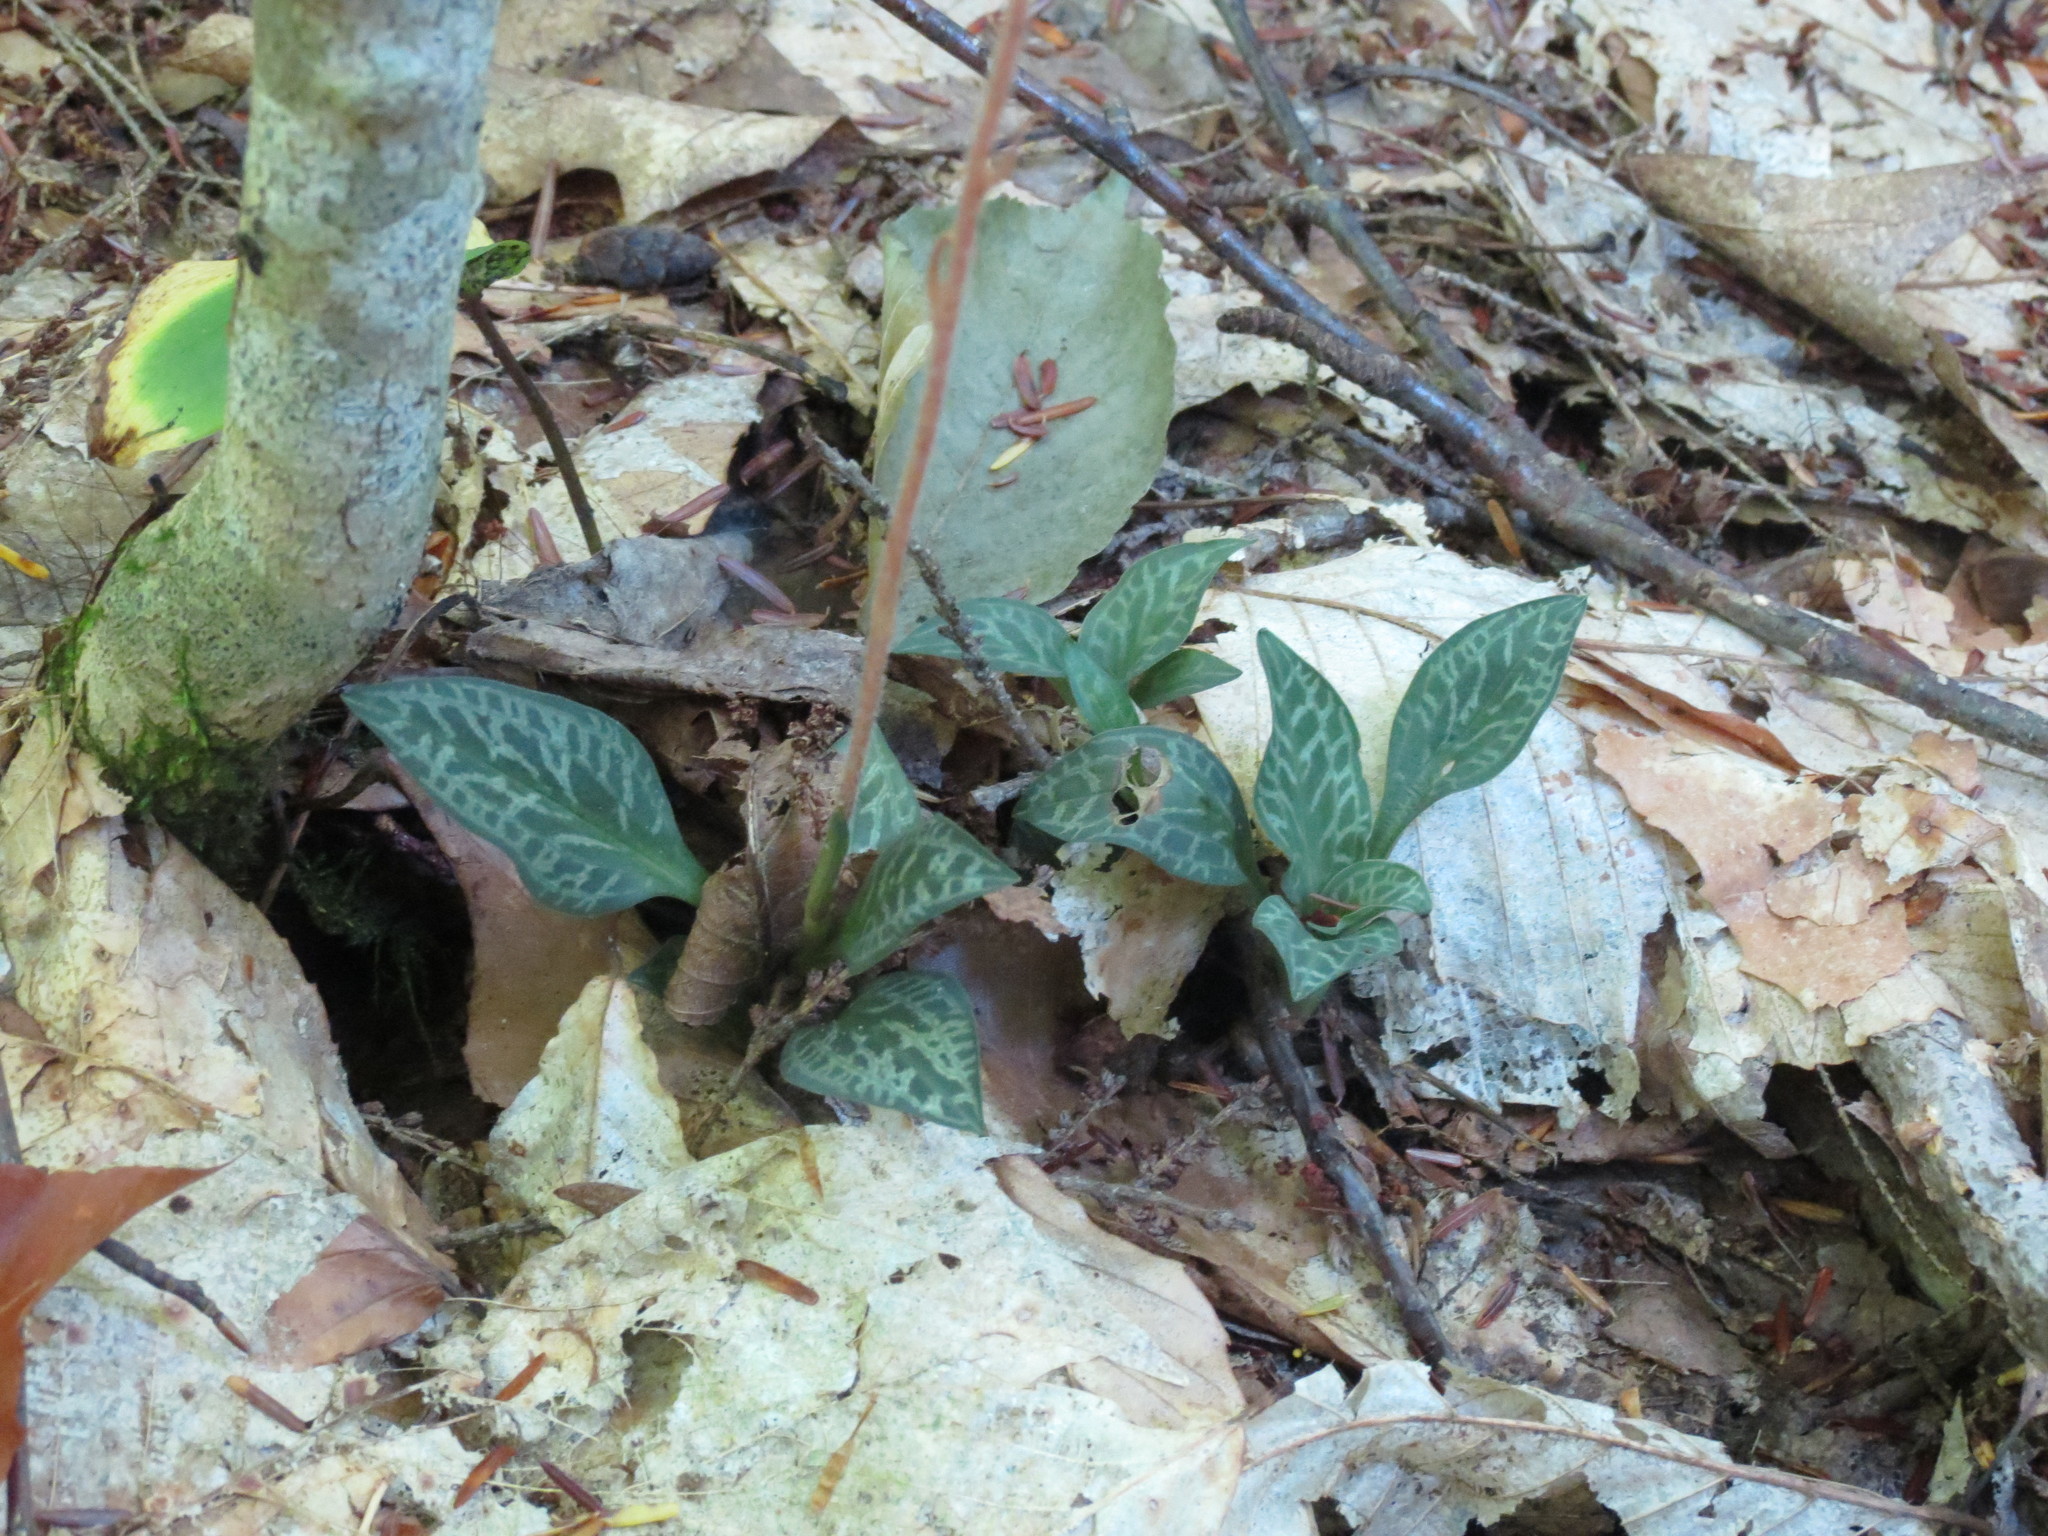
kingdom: Plantae
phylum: Tracheophyta
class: Liliopsida
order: Asparagales
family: Orchidaceae
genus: Goodyera
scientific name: Goodyera tesselata
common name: Checkered rattlesnake-plantain
